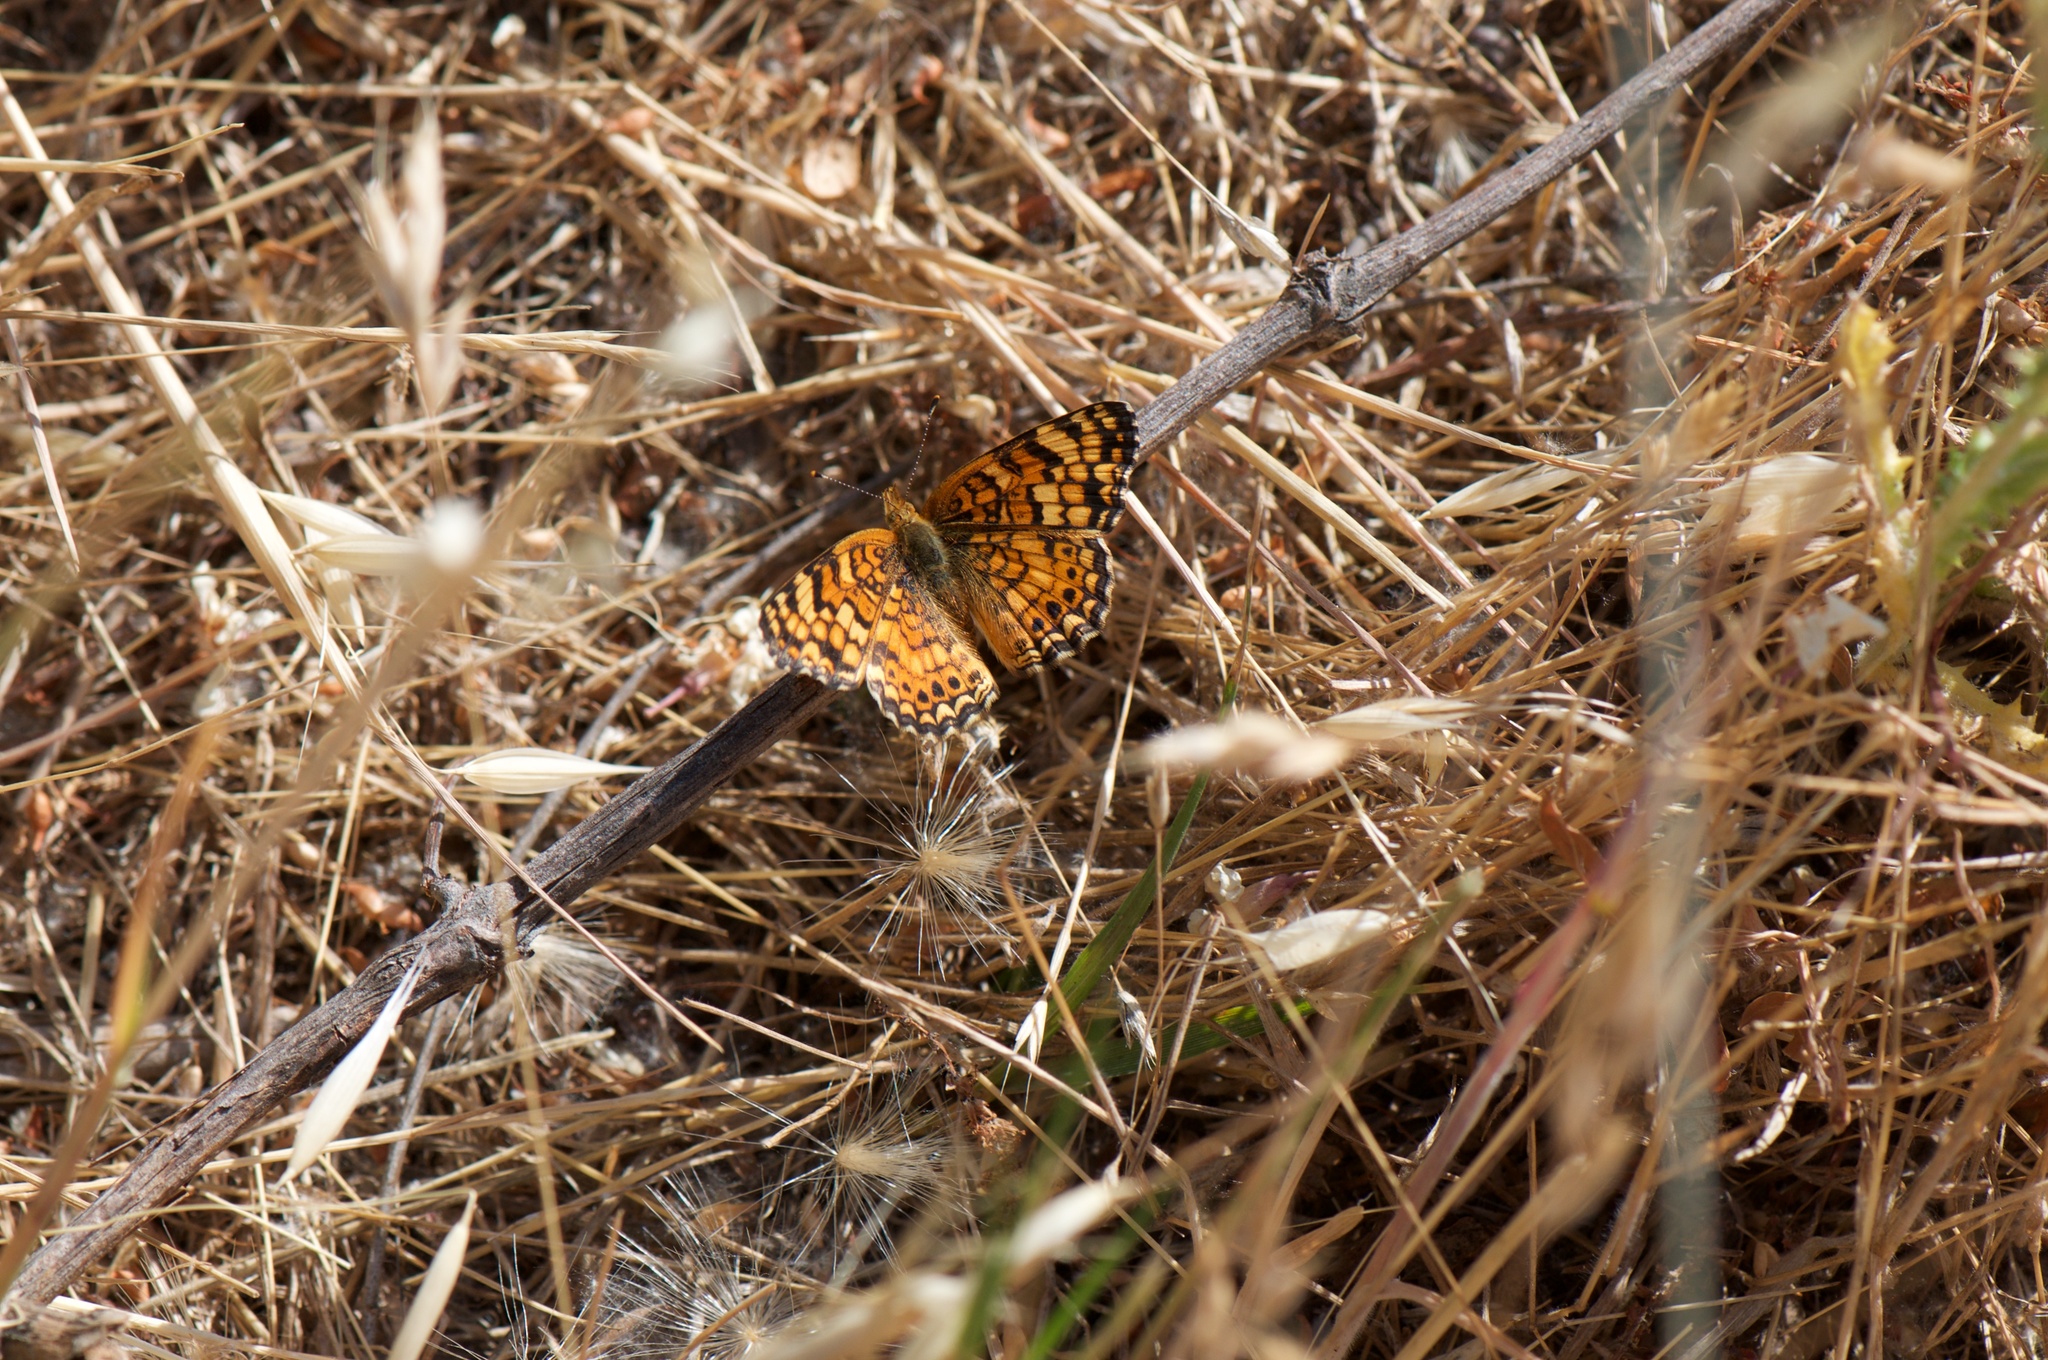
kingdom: Animalia
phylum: Arthropoda
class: Insecta
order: Lepidoptera
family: Nymphalidae
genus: Eresia
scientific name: Eresia aveyrona
